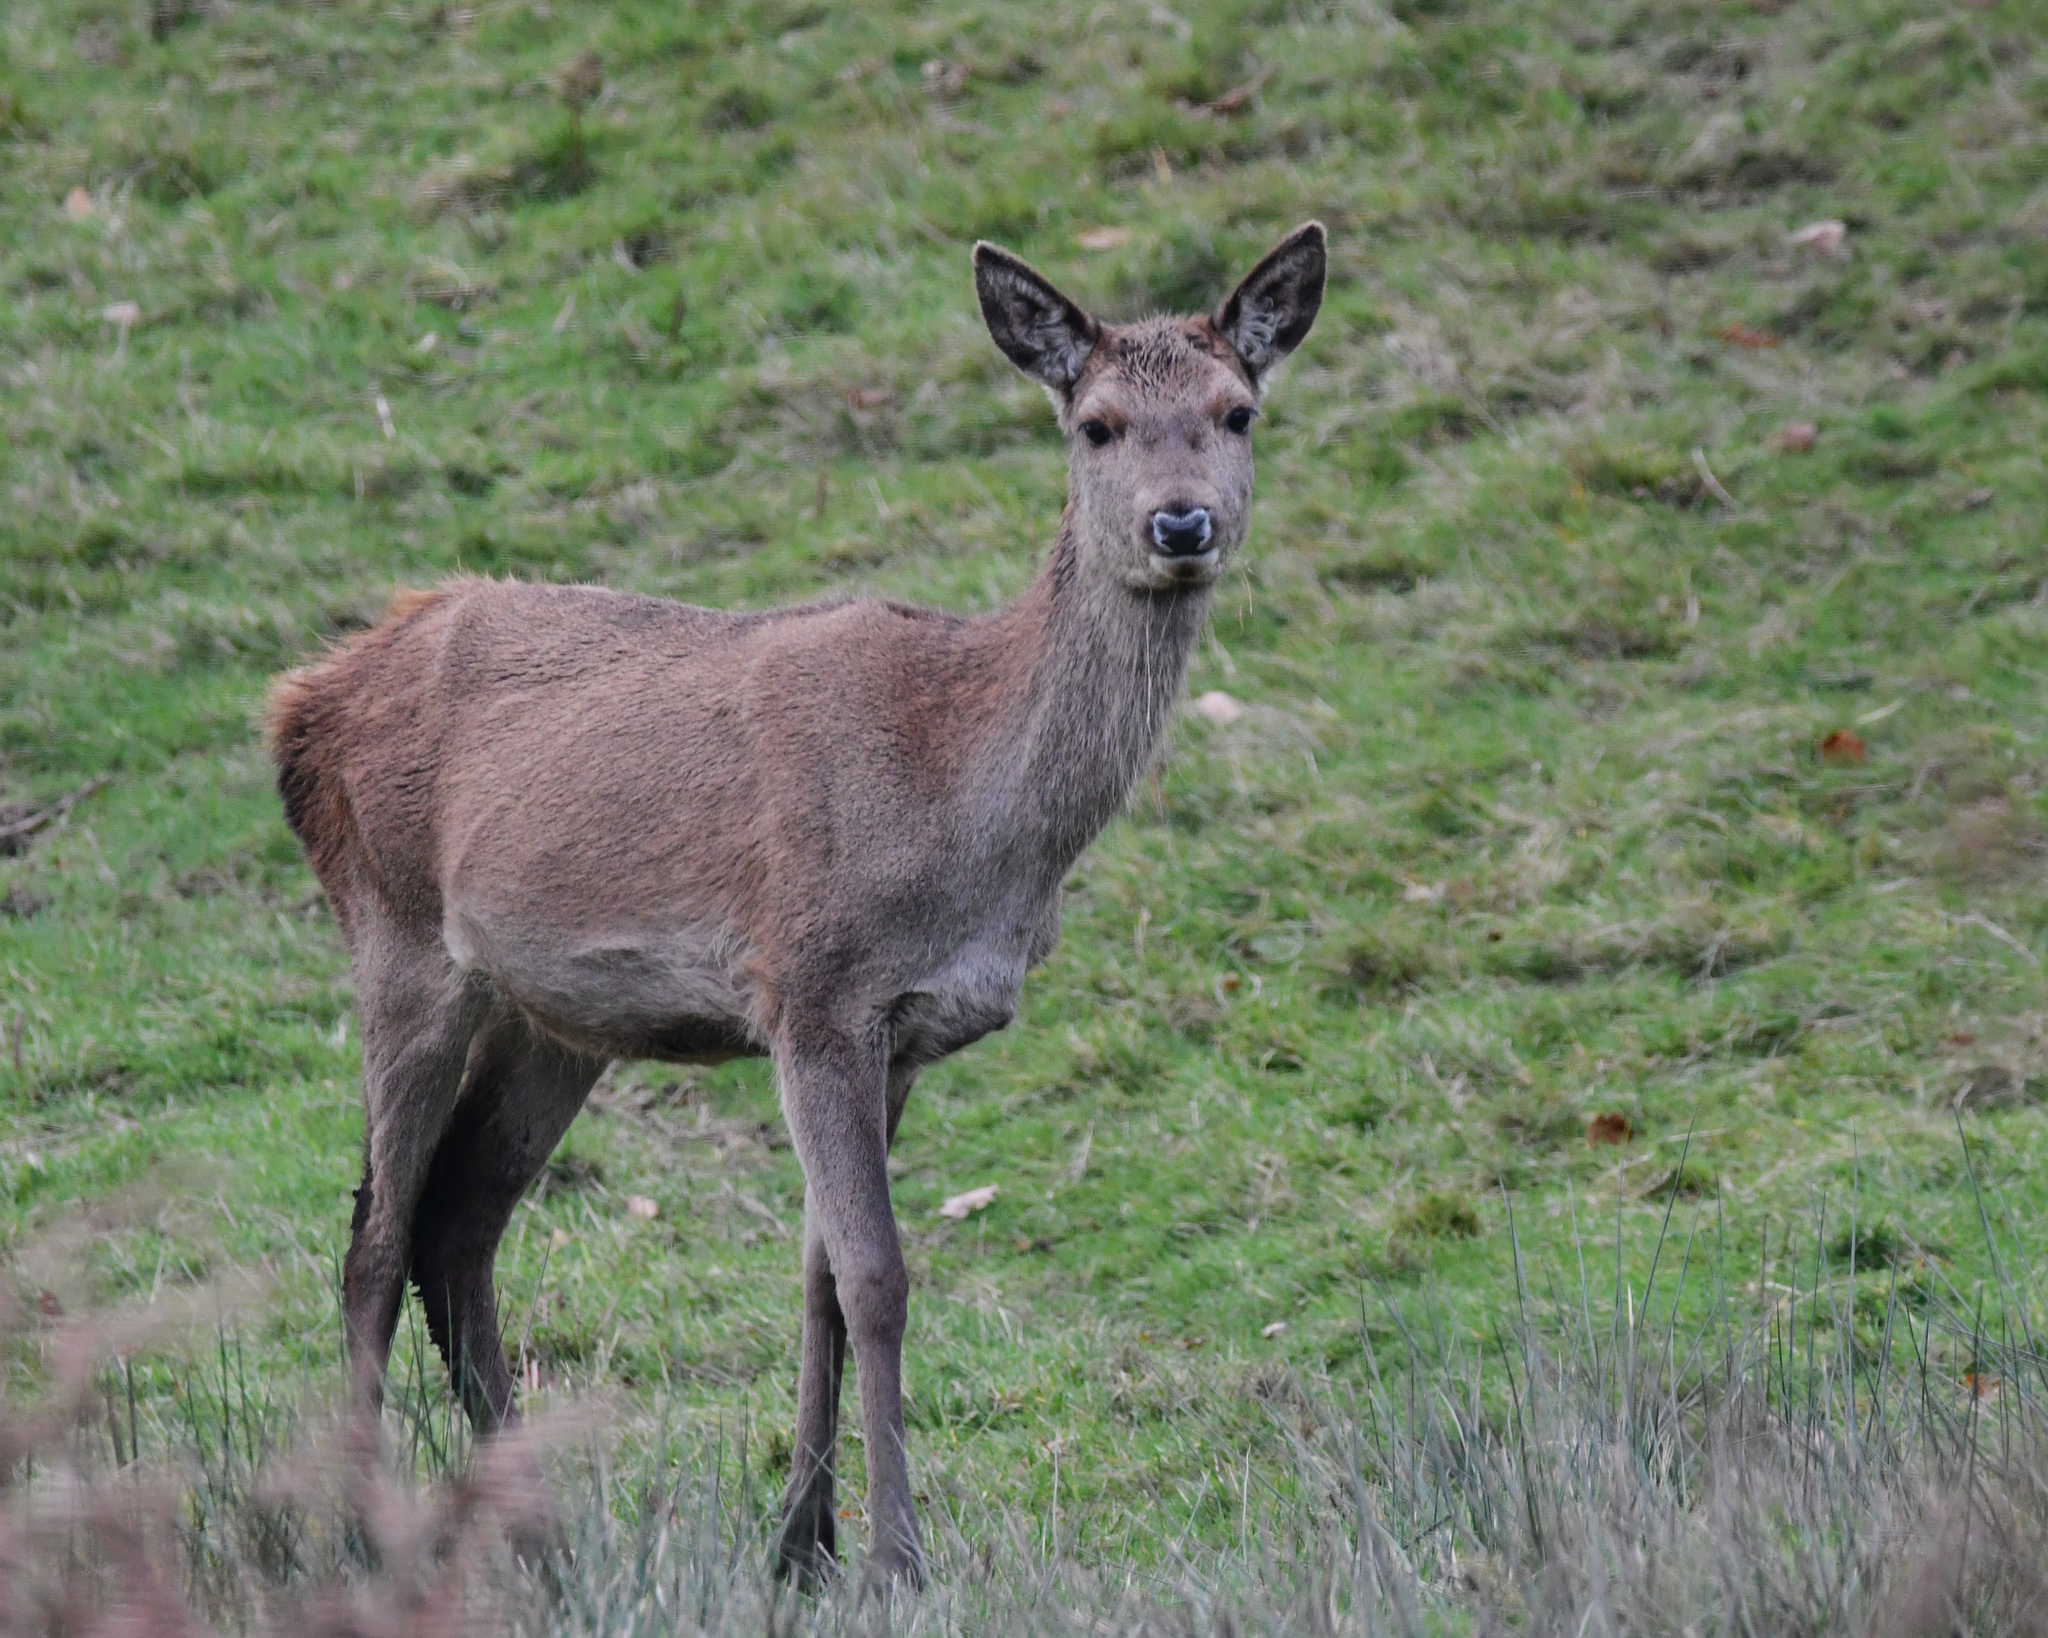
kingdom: Animalia
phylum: Chordata
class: Mammalia
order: Artiodactyla
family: Cervidae
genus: Cervus
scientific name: Cervus elaphus
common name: Red deer
